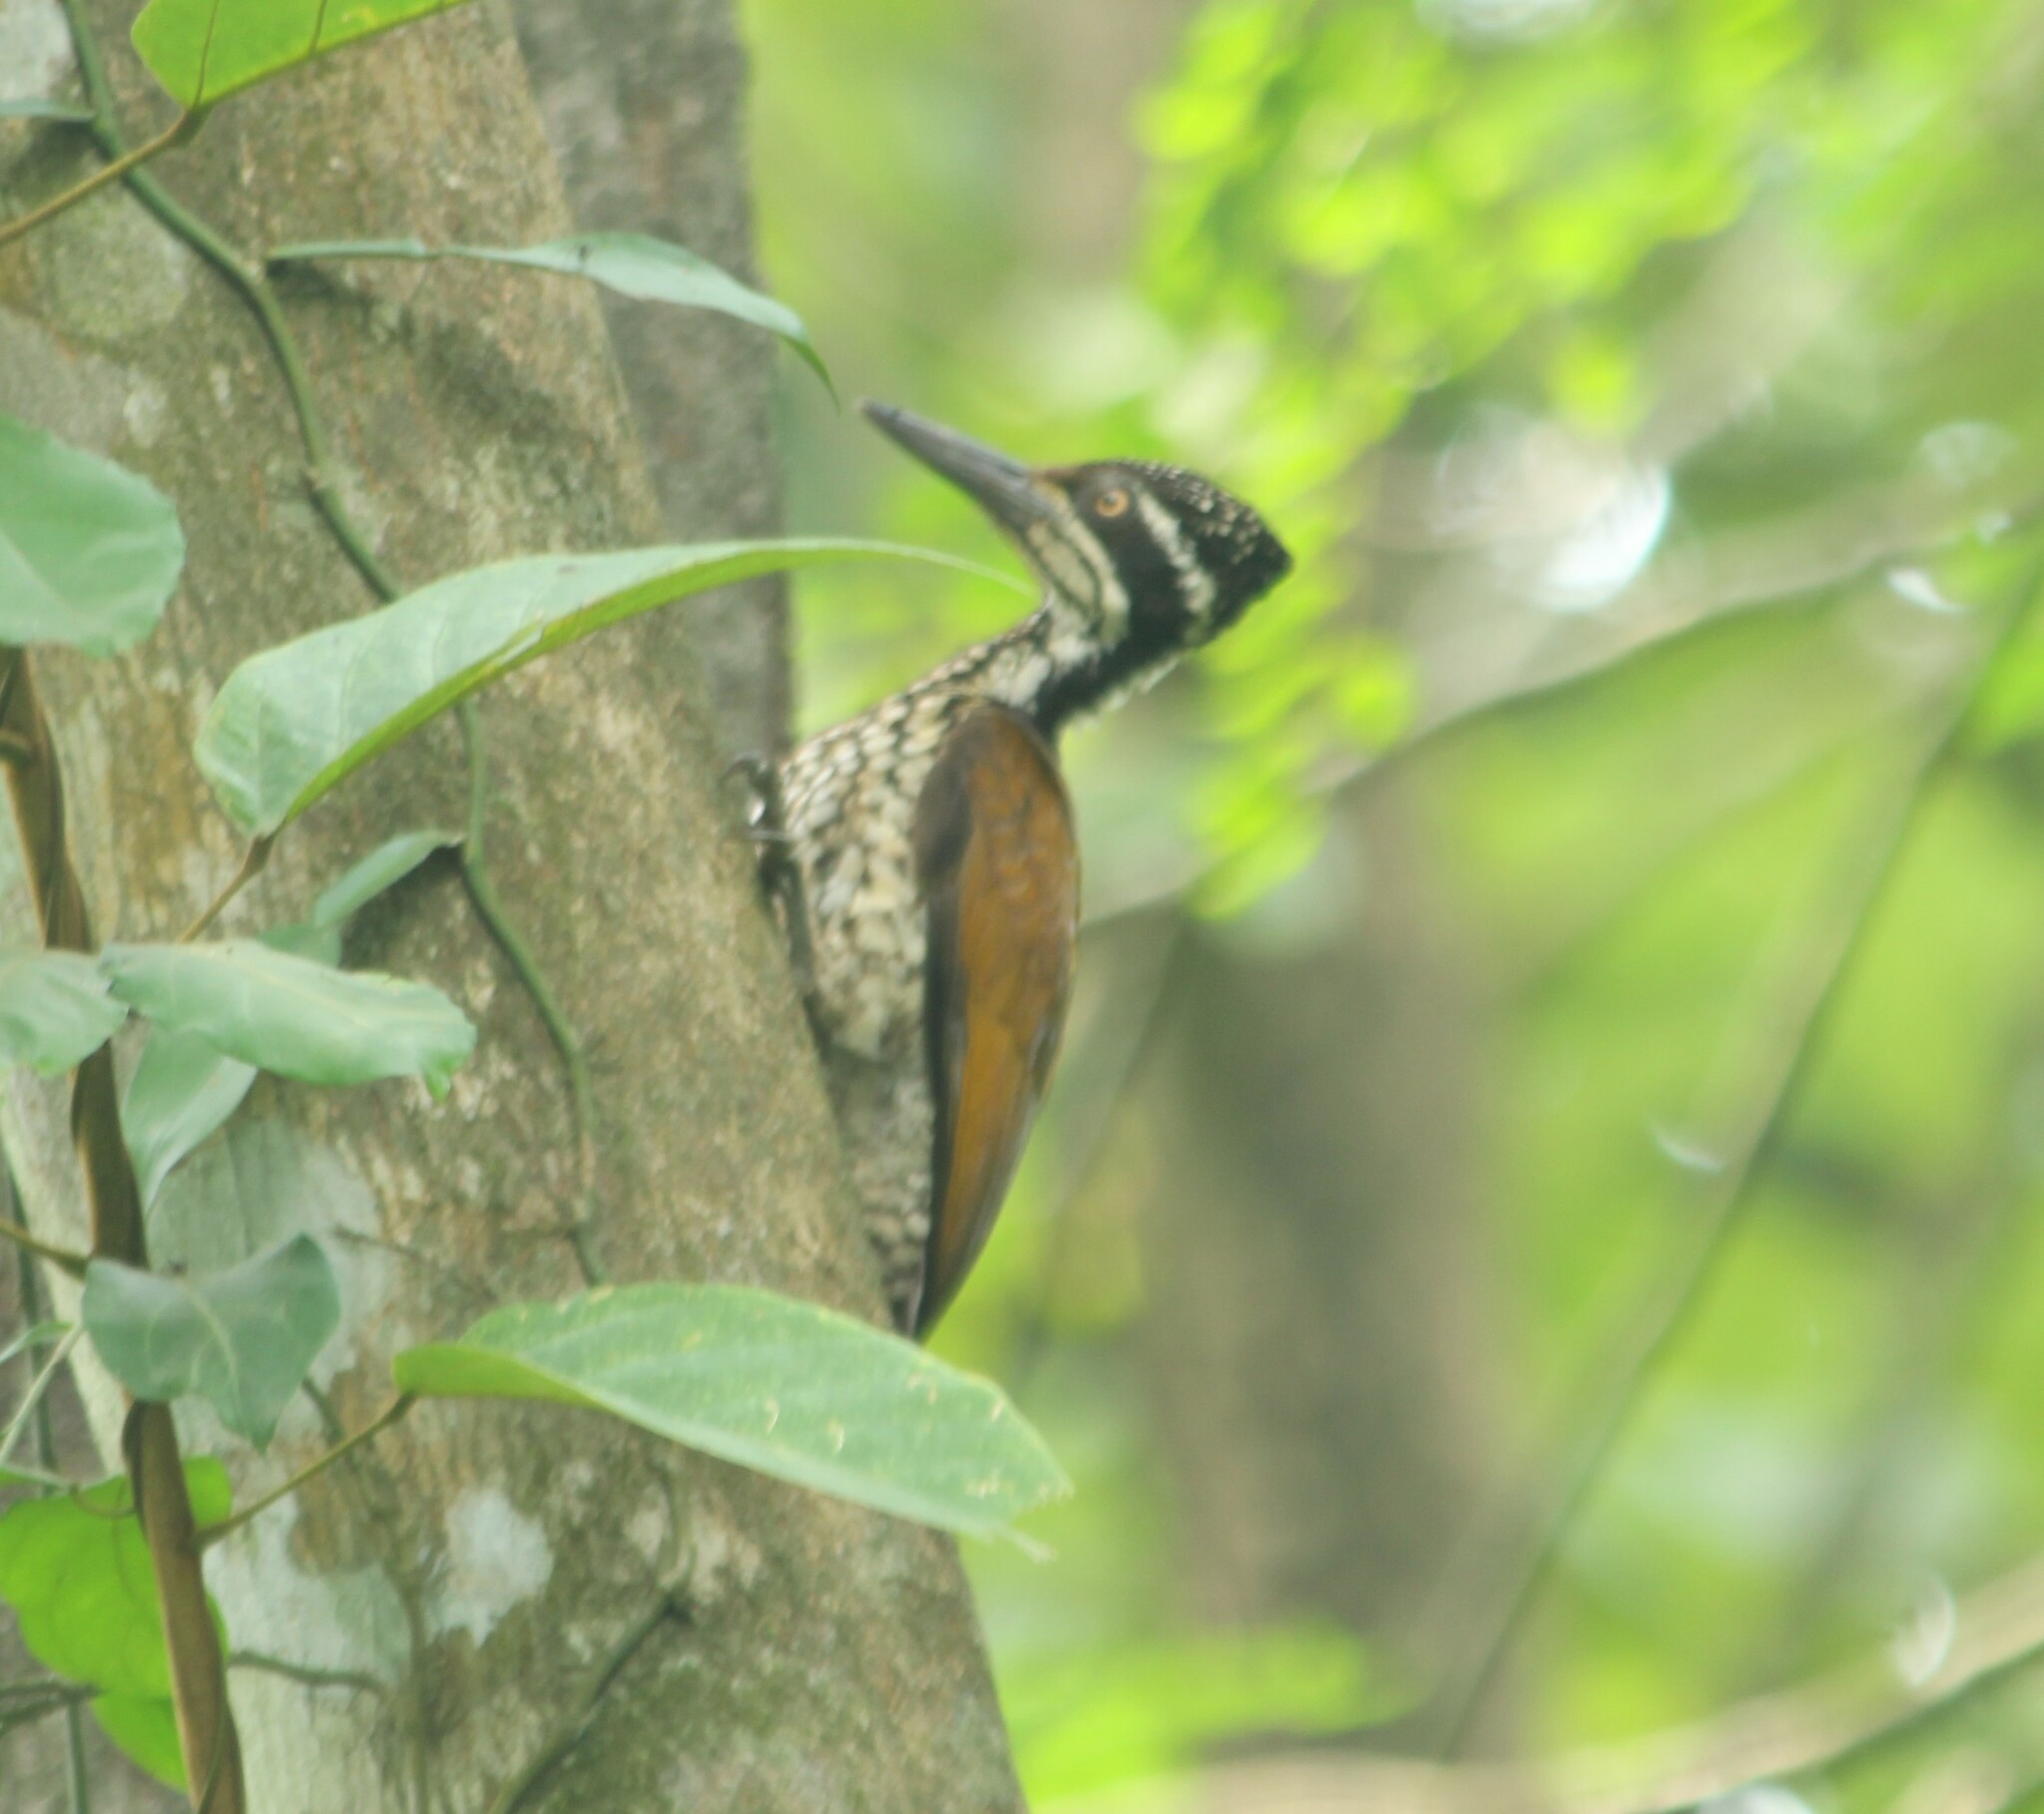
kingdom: Animalia
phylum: Chordata
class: Aves
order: Piciformes
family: Picidae
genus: Chrysocolaptes
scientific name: Chrysocolaptes socialis
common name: Malabar flameback
